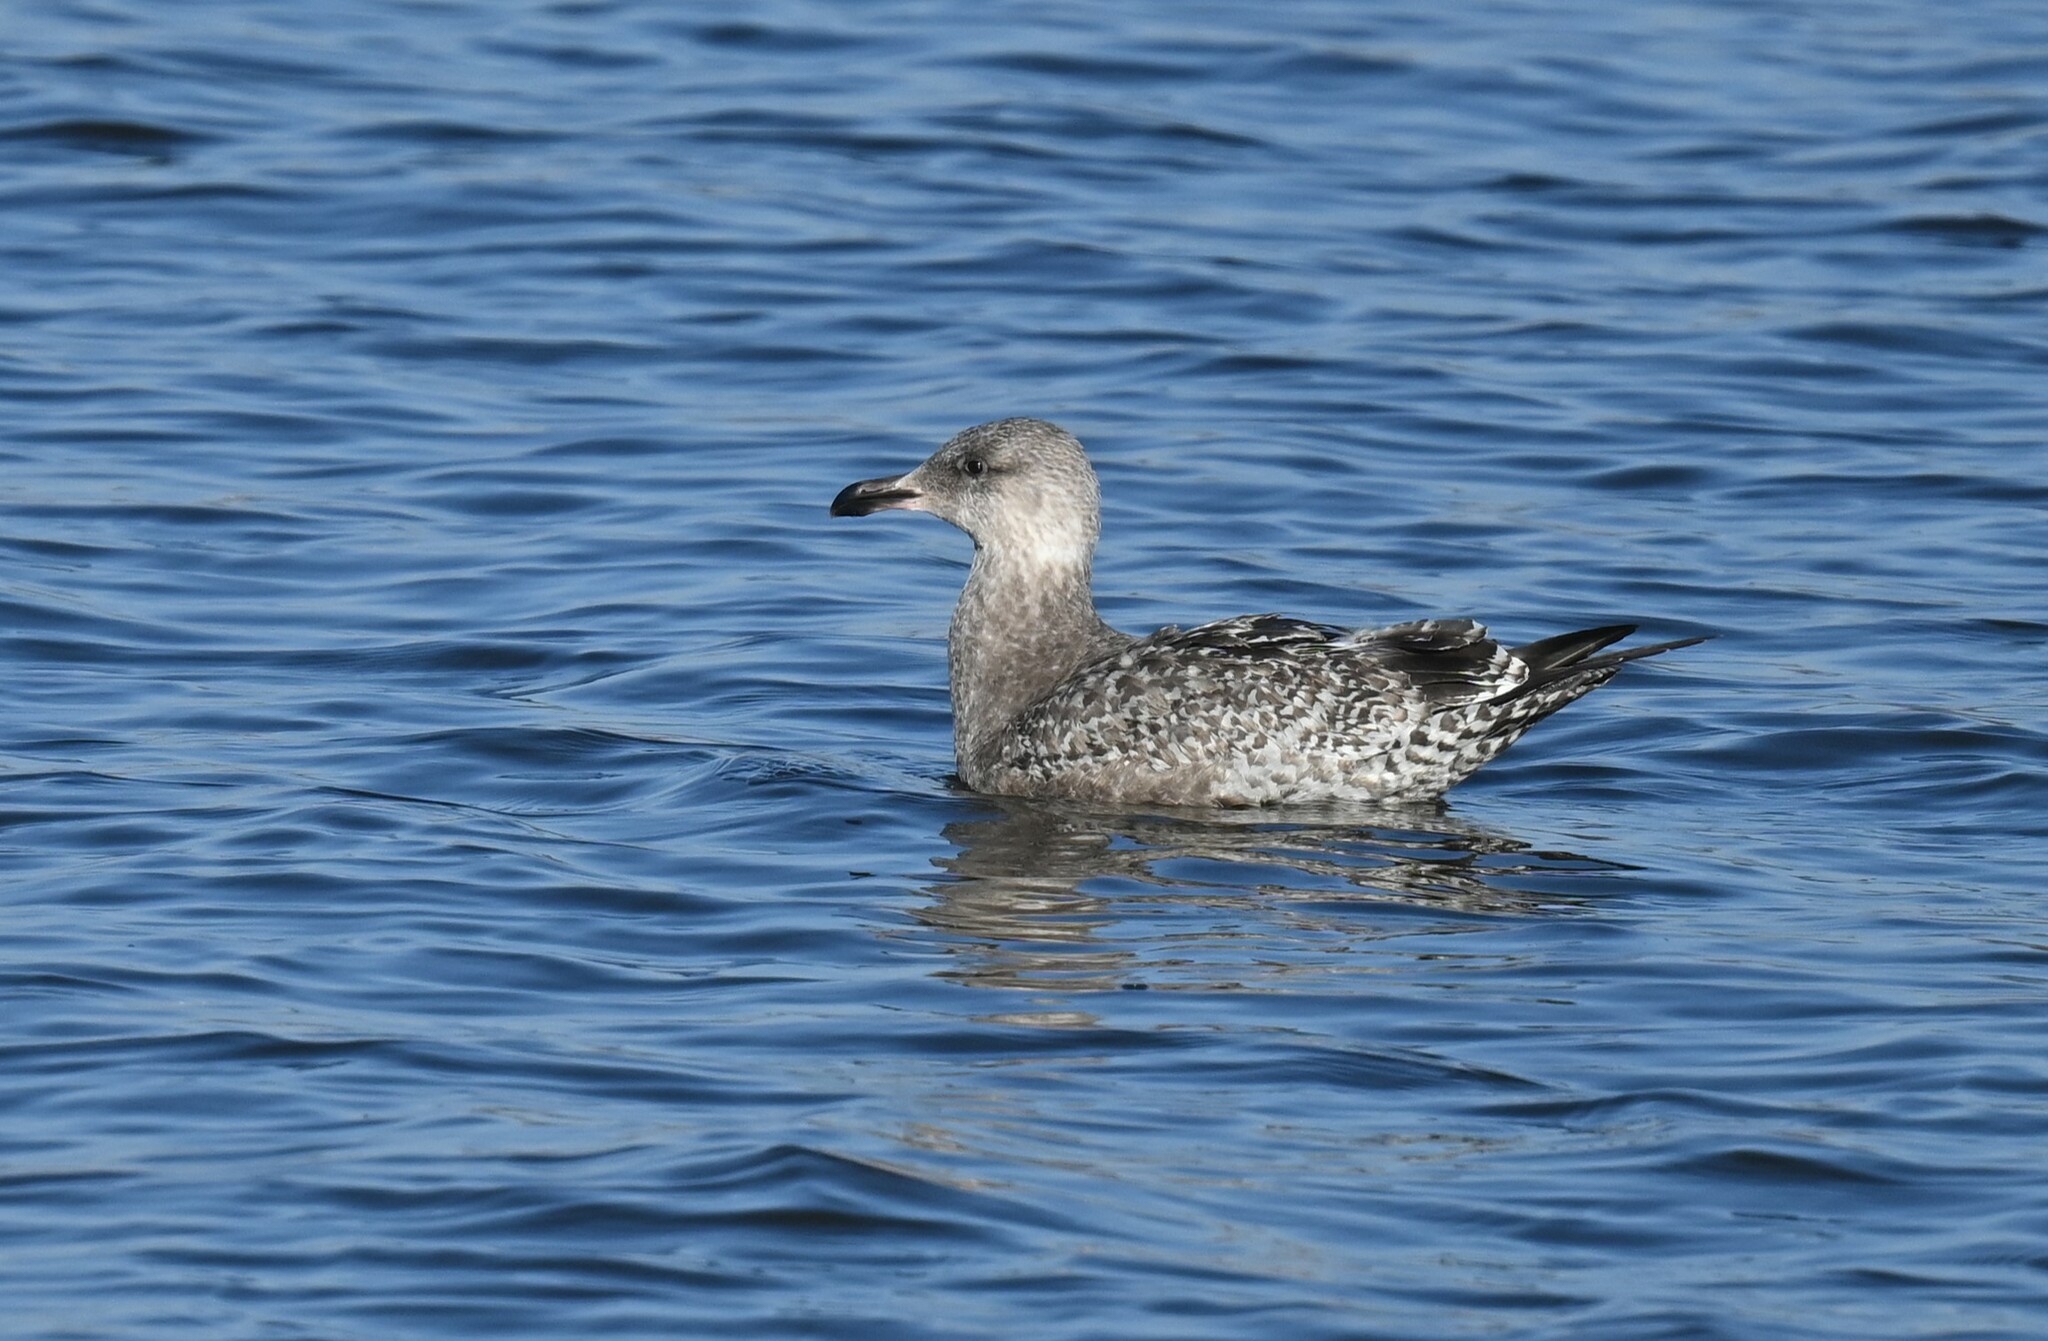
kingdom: Animalia
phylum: Chordata
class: Aves
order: Charadriiformes
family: Laridae
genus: Larus
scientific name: Larus argentatus
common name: Herring gull
